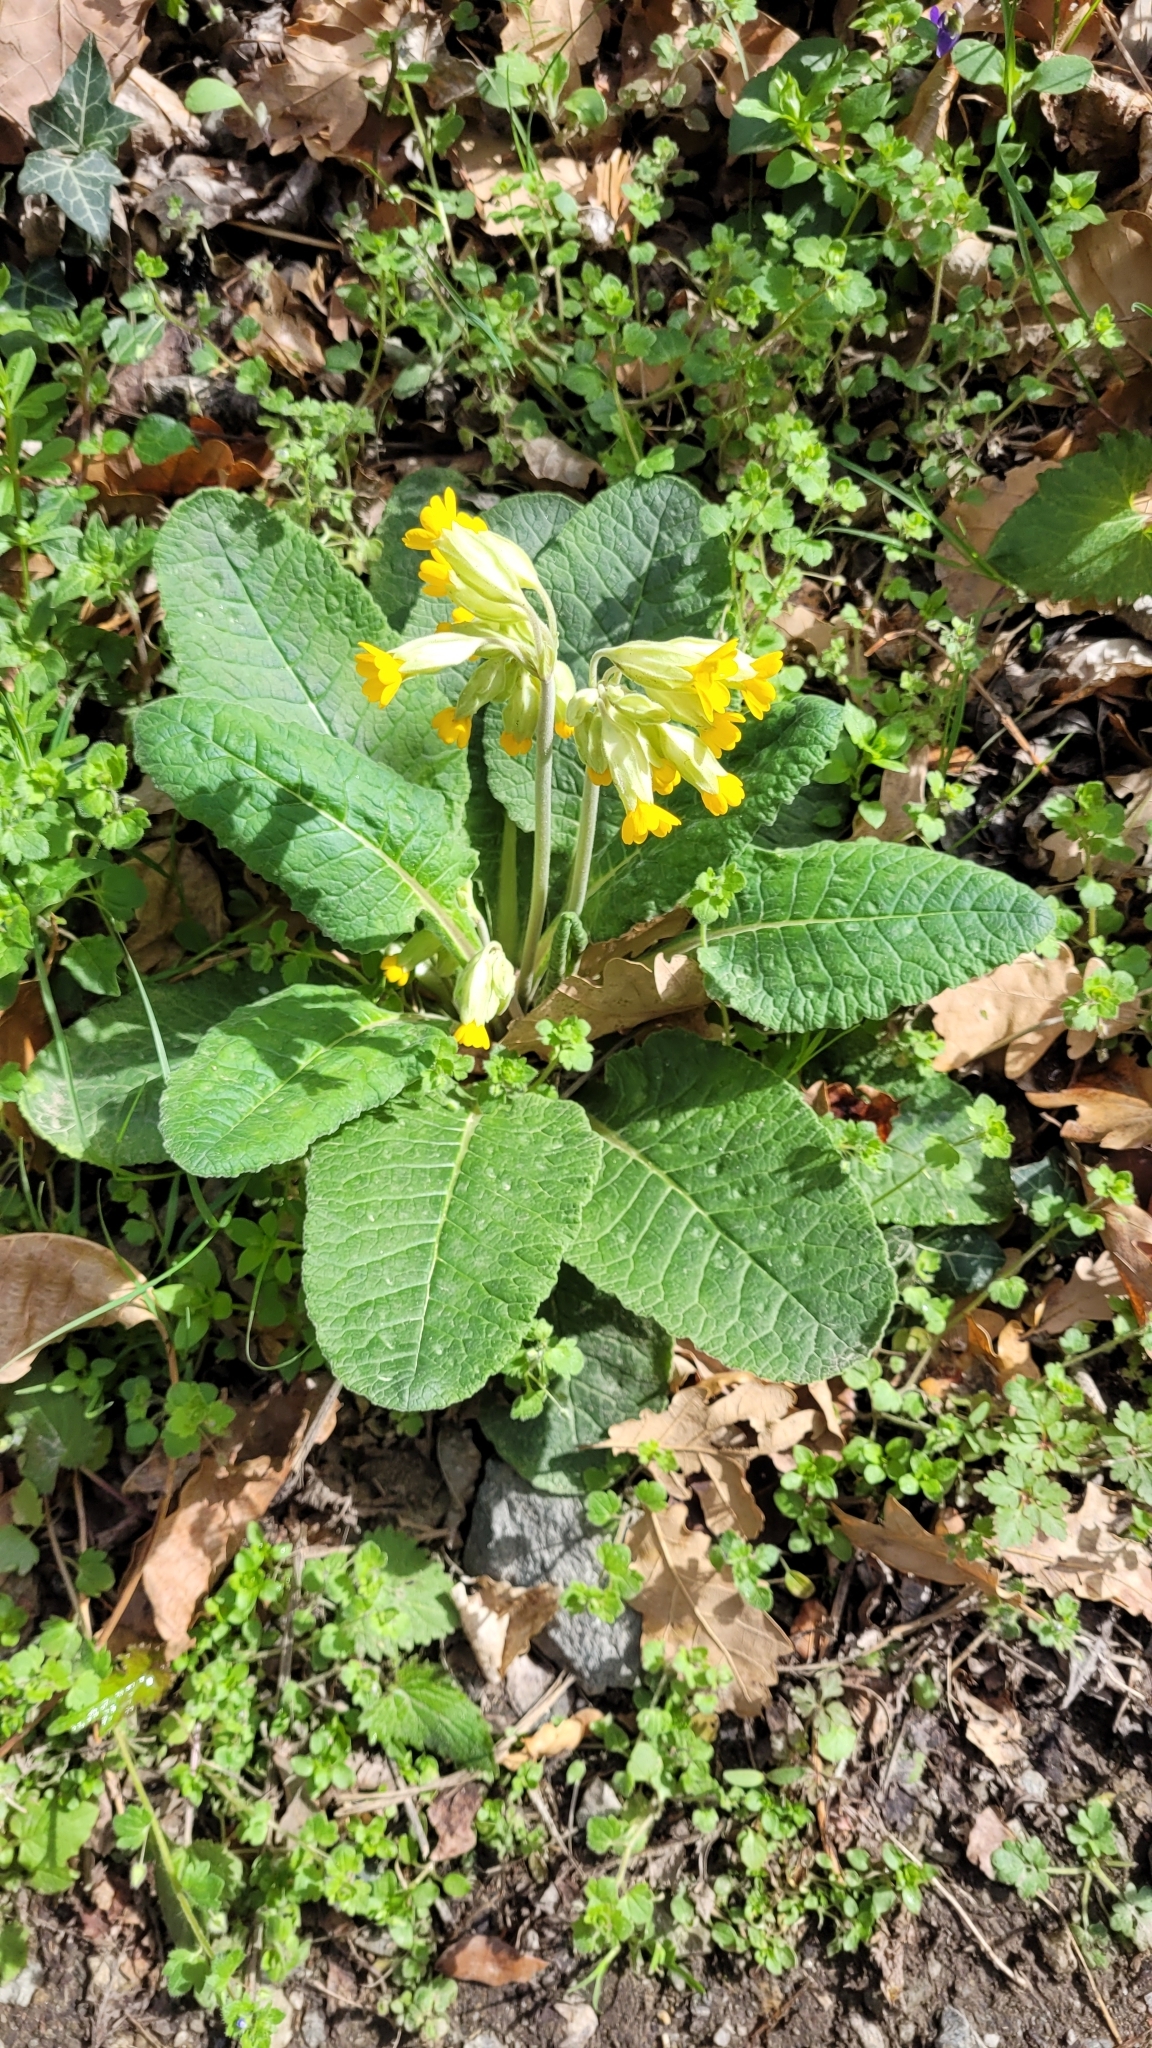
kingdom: Plantae
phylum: Tracheophyta
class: Magnoliopsida
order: Ericales
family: Primulaceae
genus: Primula
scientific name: Primula veris
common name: Cowslip
